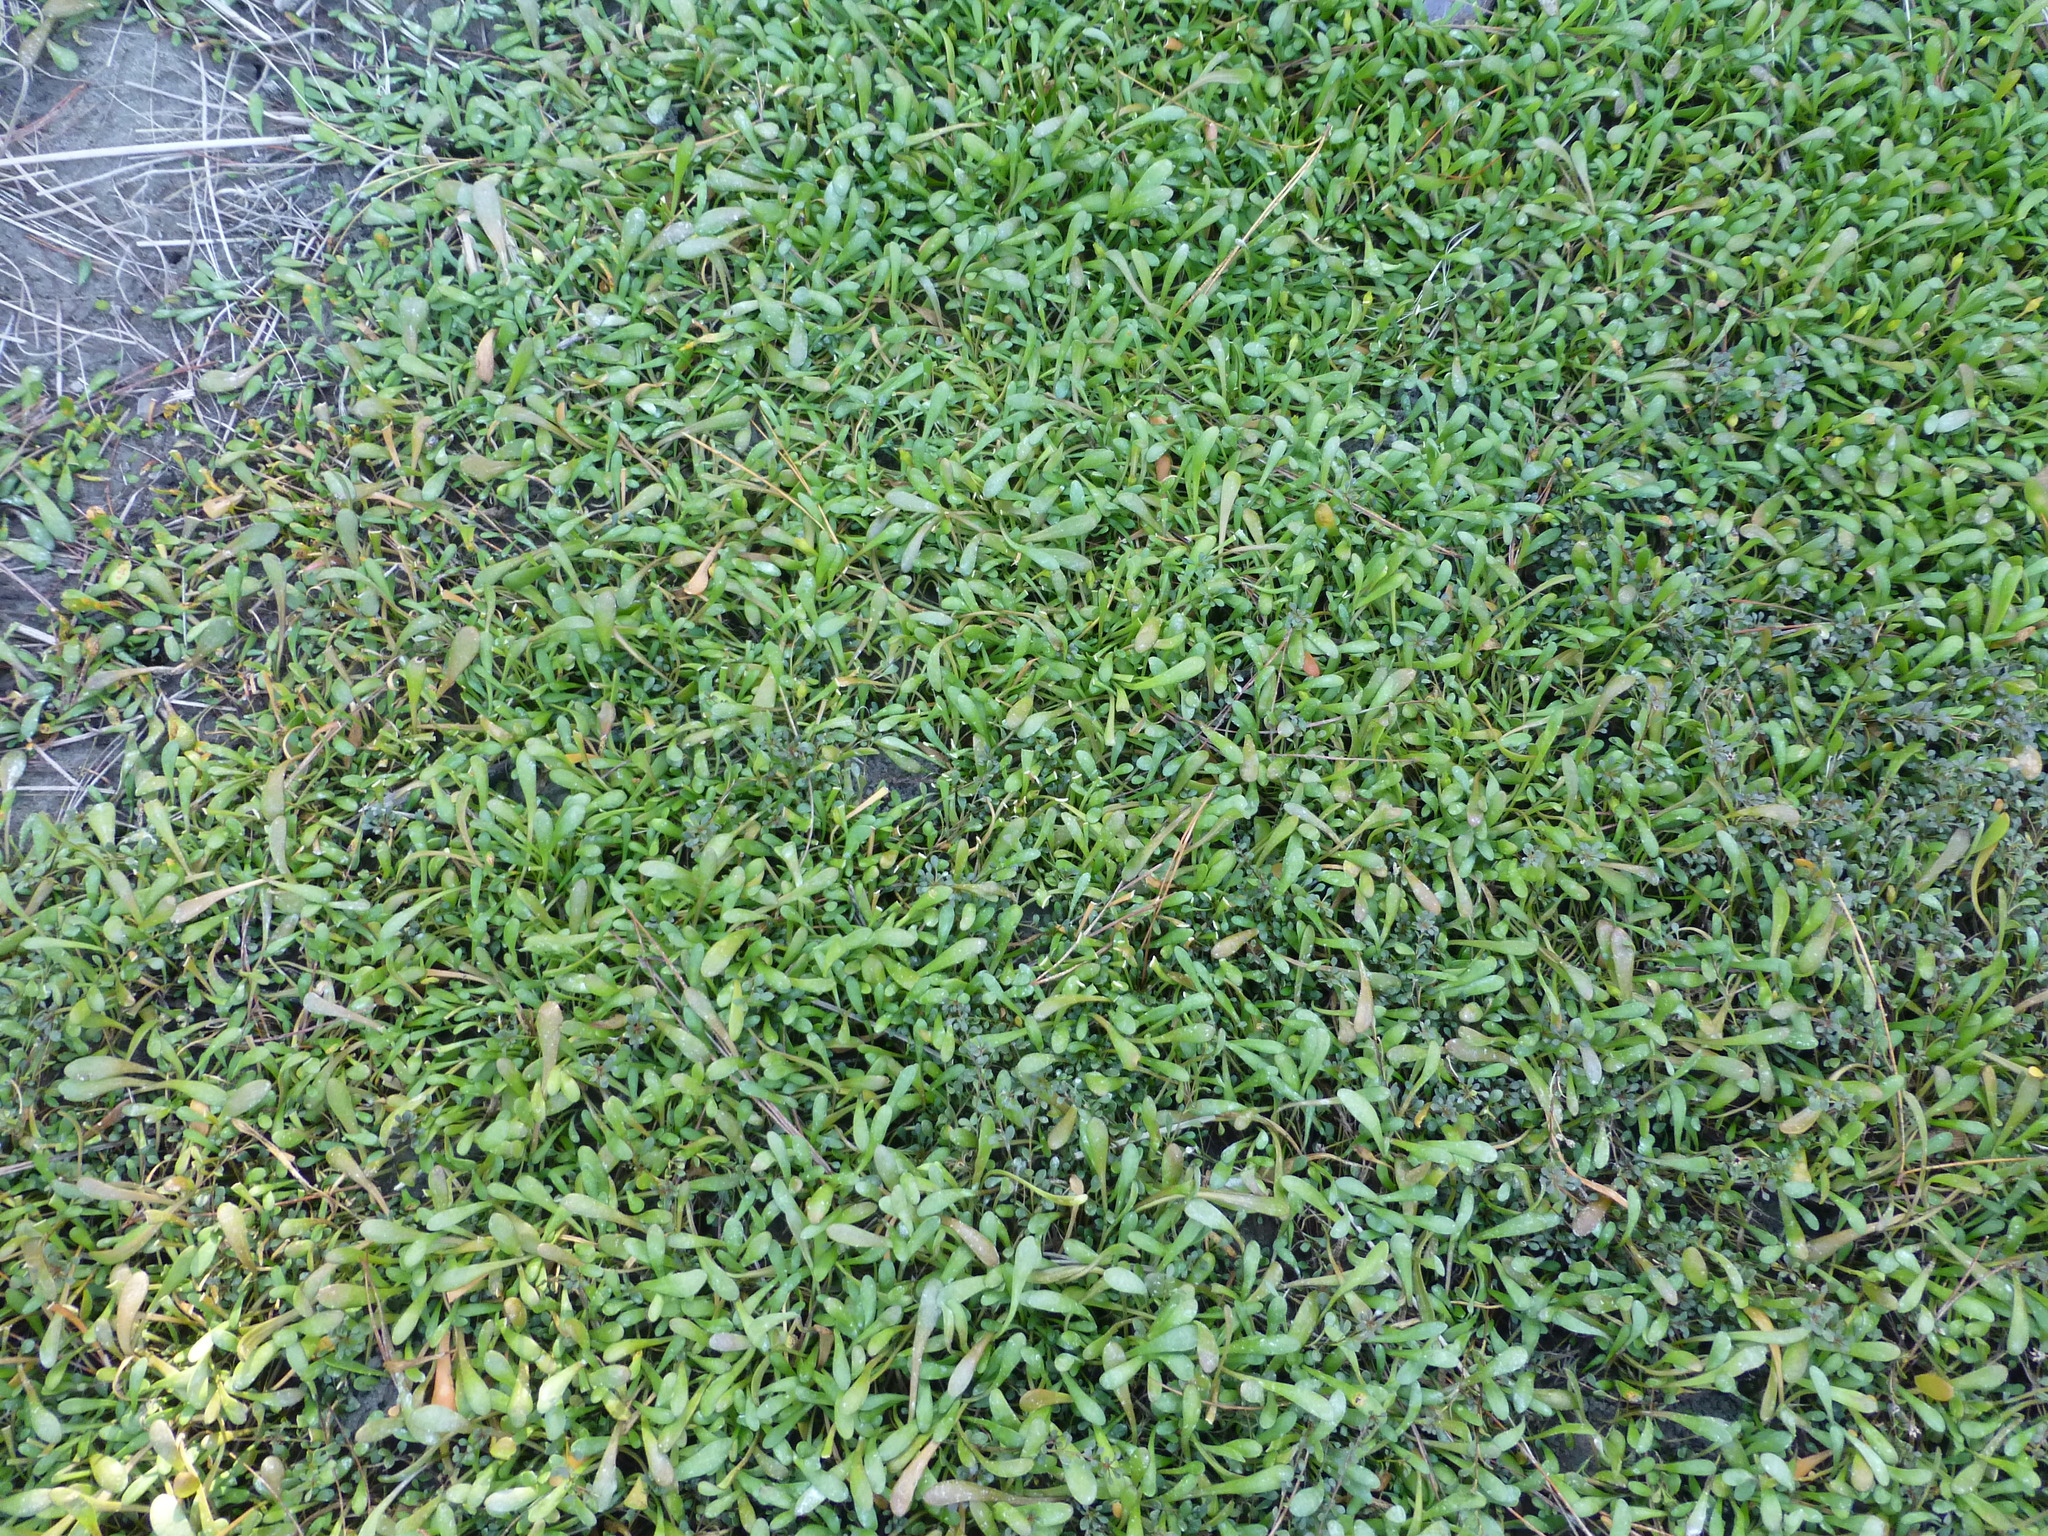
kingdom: Plantae
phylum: Tracheophyta
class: Magnoliopsida
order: Asterales
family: Goodeniaceae
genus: Goodenia
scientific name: Goodenia radicans
